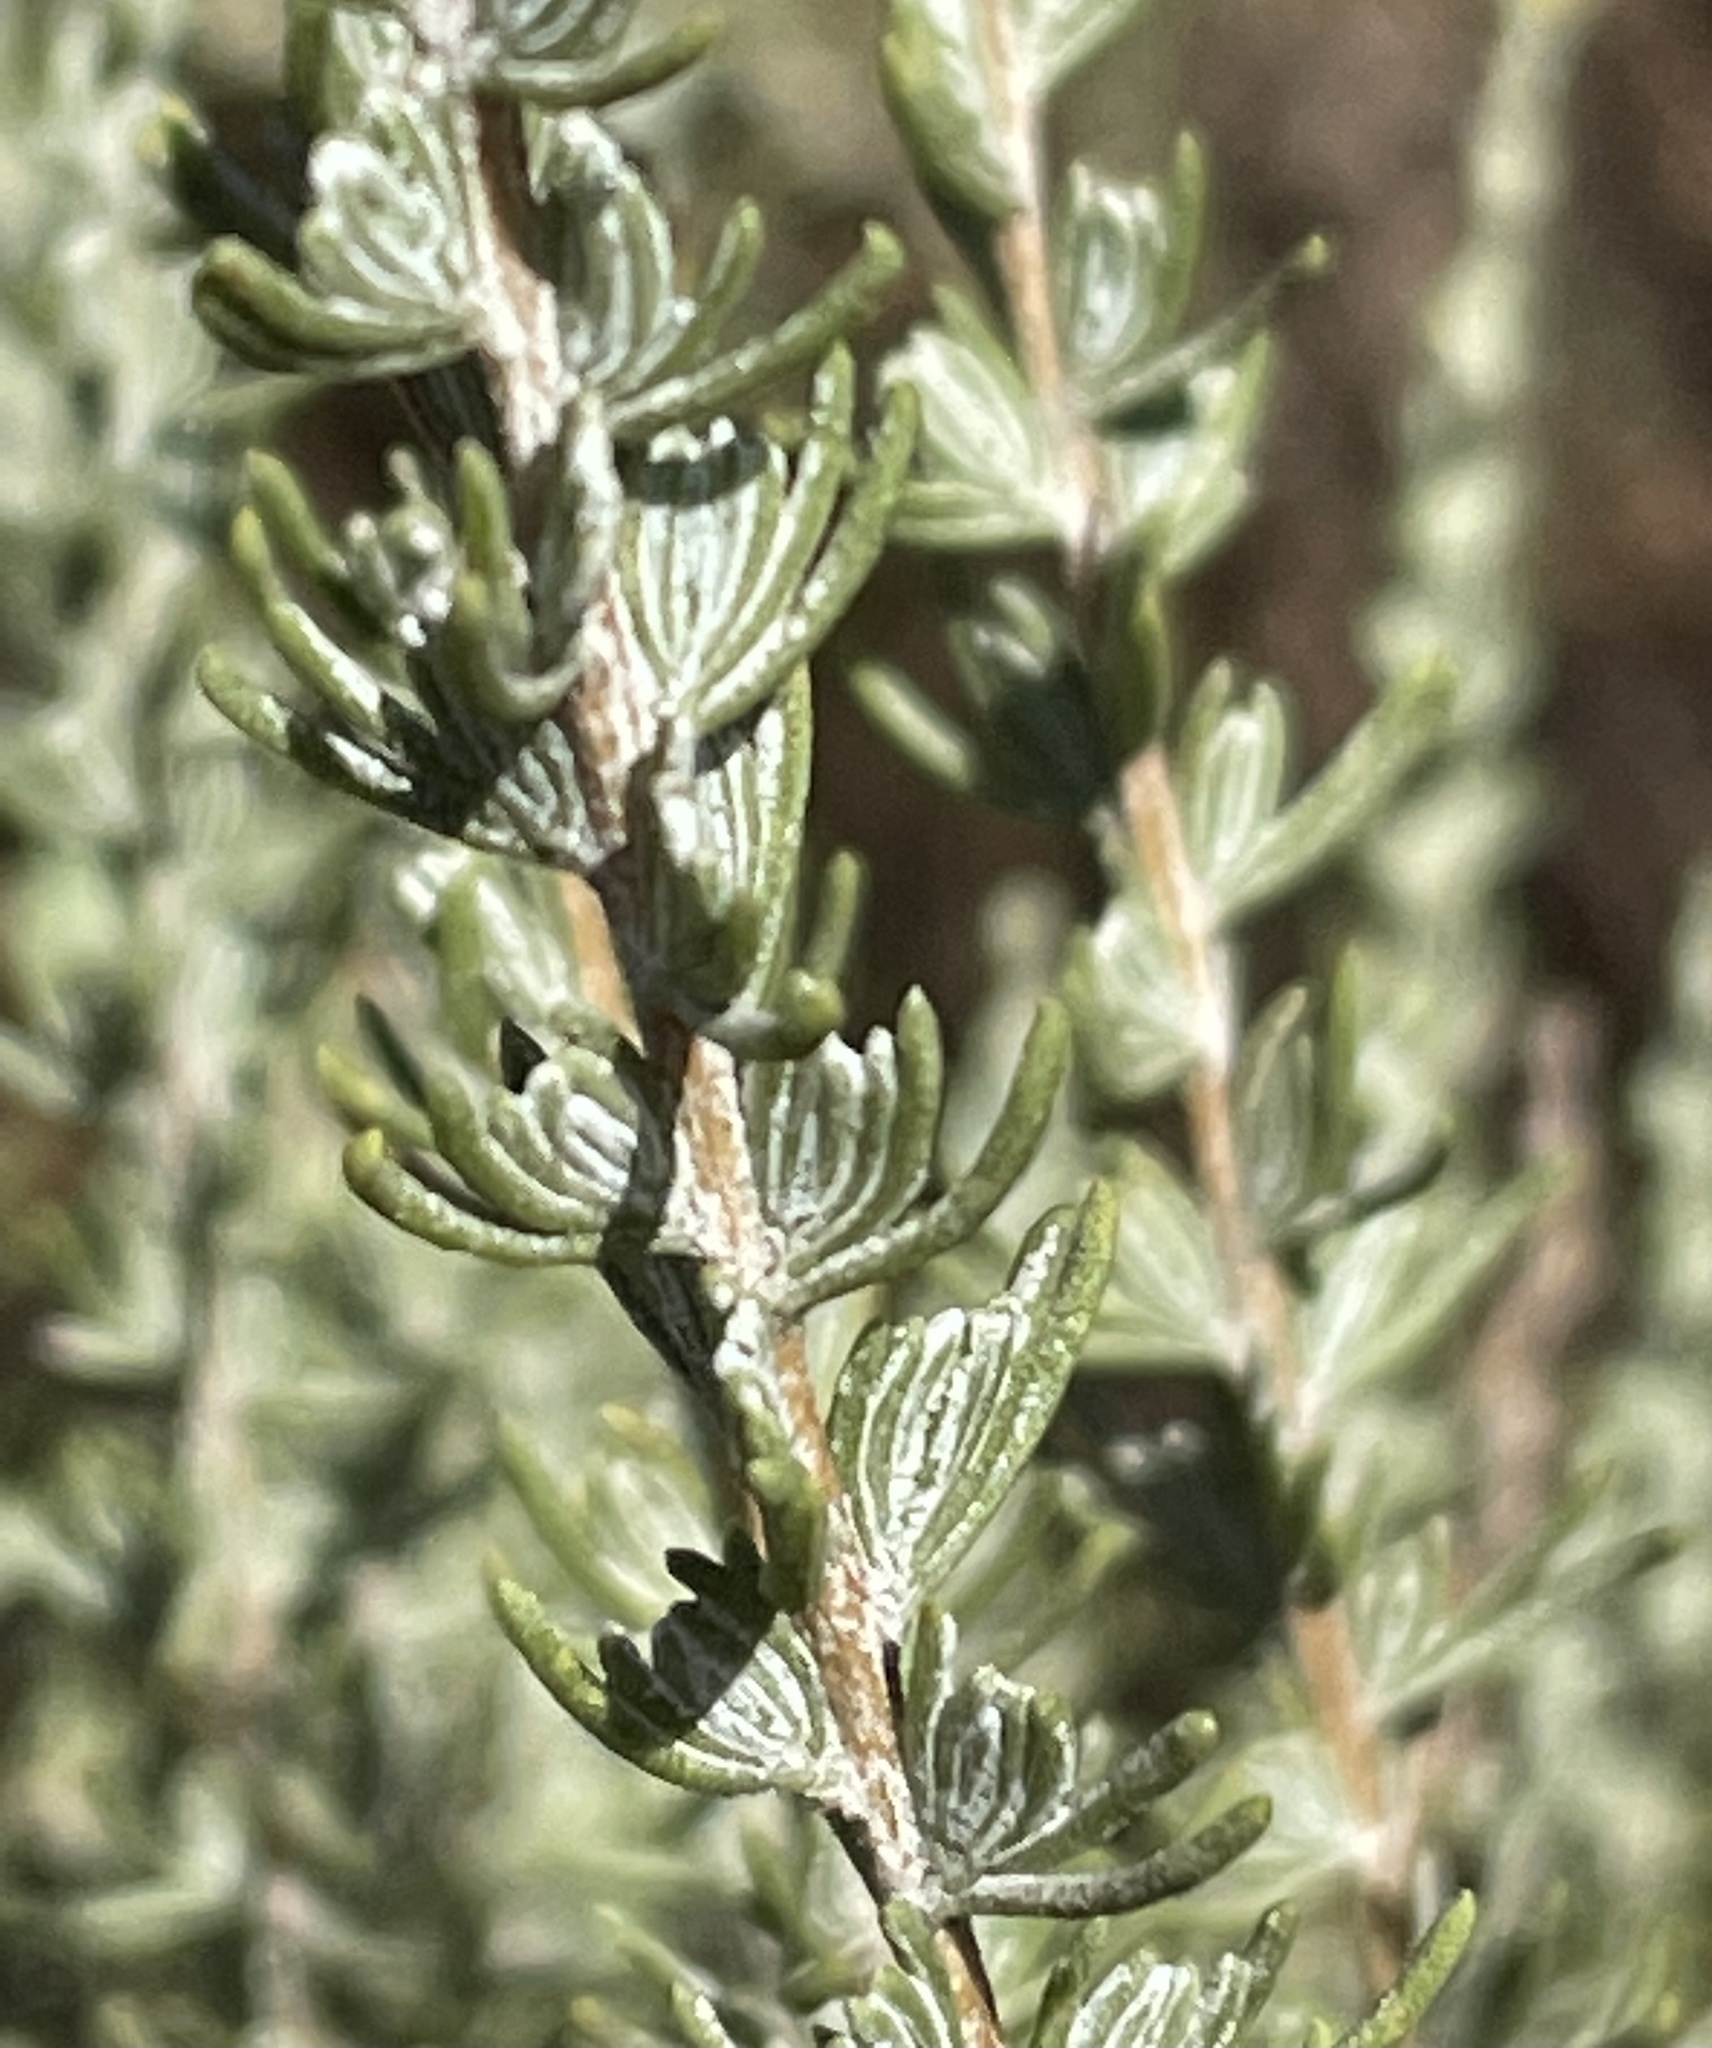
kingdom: Plantae
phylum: Tracheophyta
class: Magnoliopsida
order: Asterales
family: Asteraceae
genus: Ericameria
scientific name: Ericameria ericoides
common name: California goldenbush
